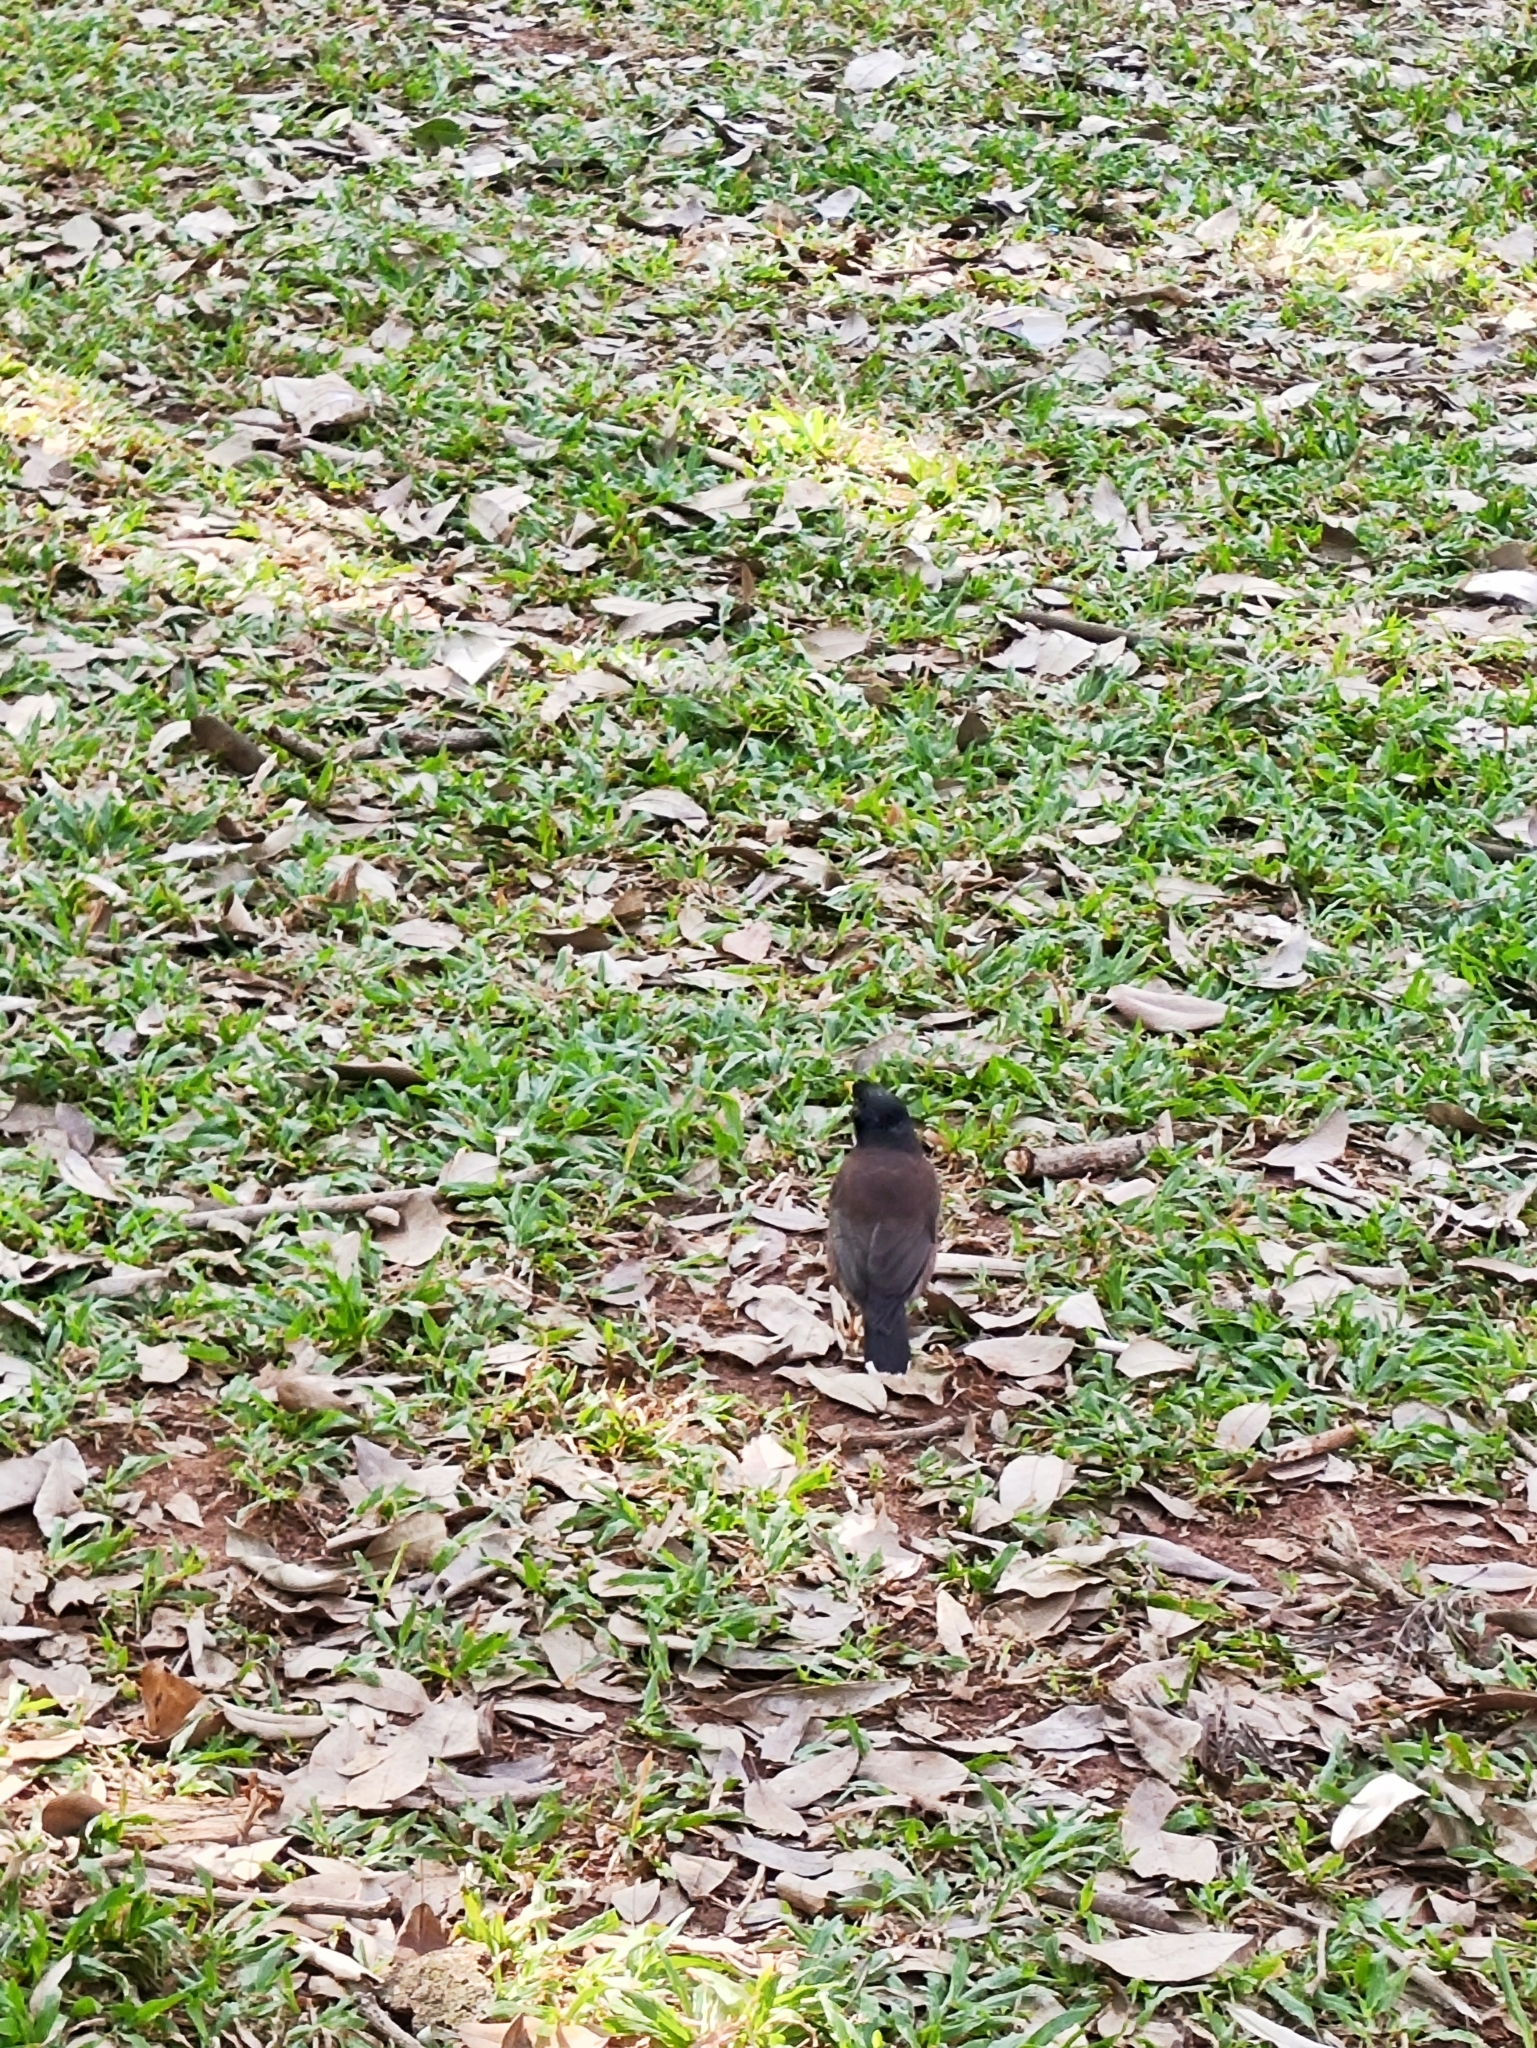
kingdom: Animalia
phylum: Chordata
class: Aves
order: Passeriformes
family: Sturnidae
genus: Acridotheres
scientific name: Acridotheres tristis
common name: Common myna
